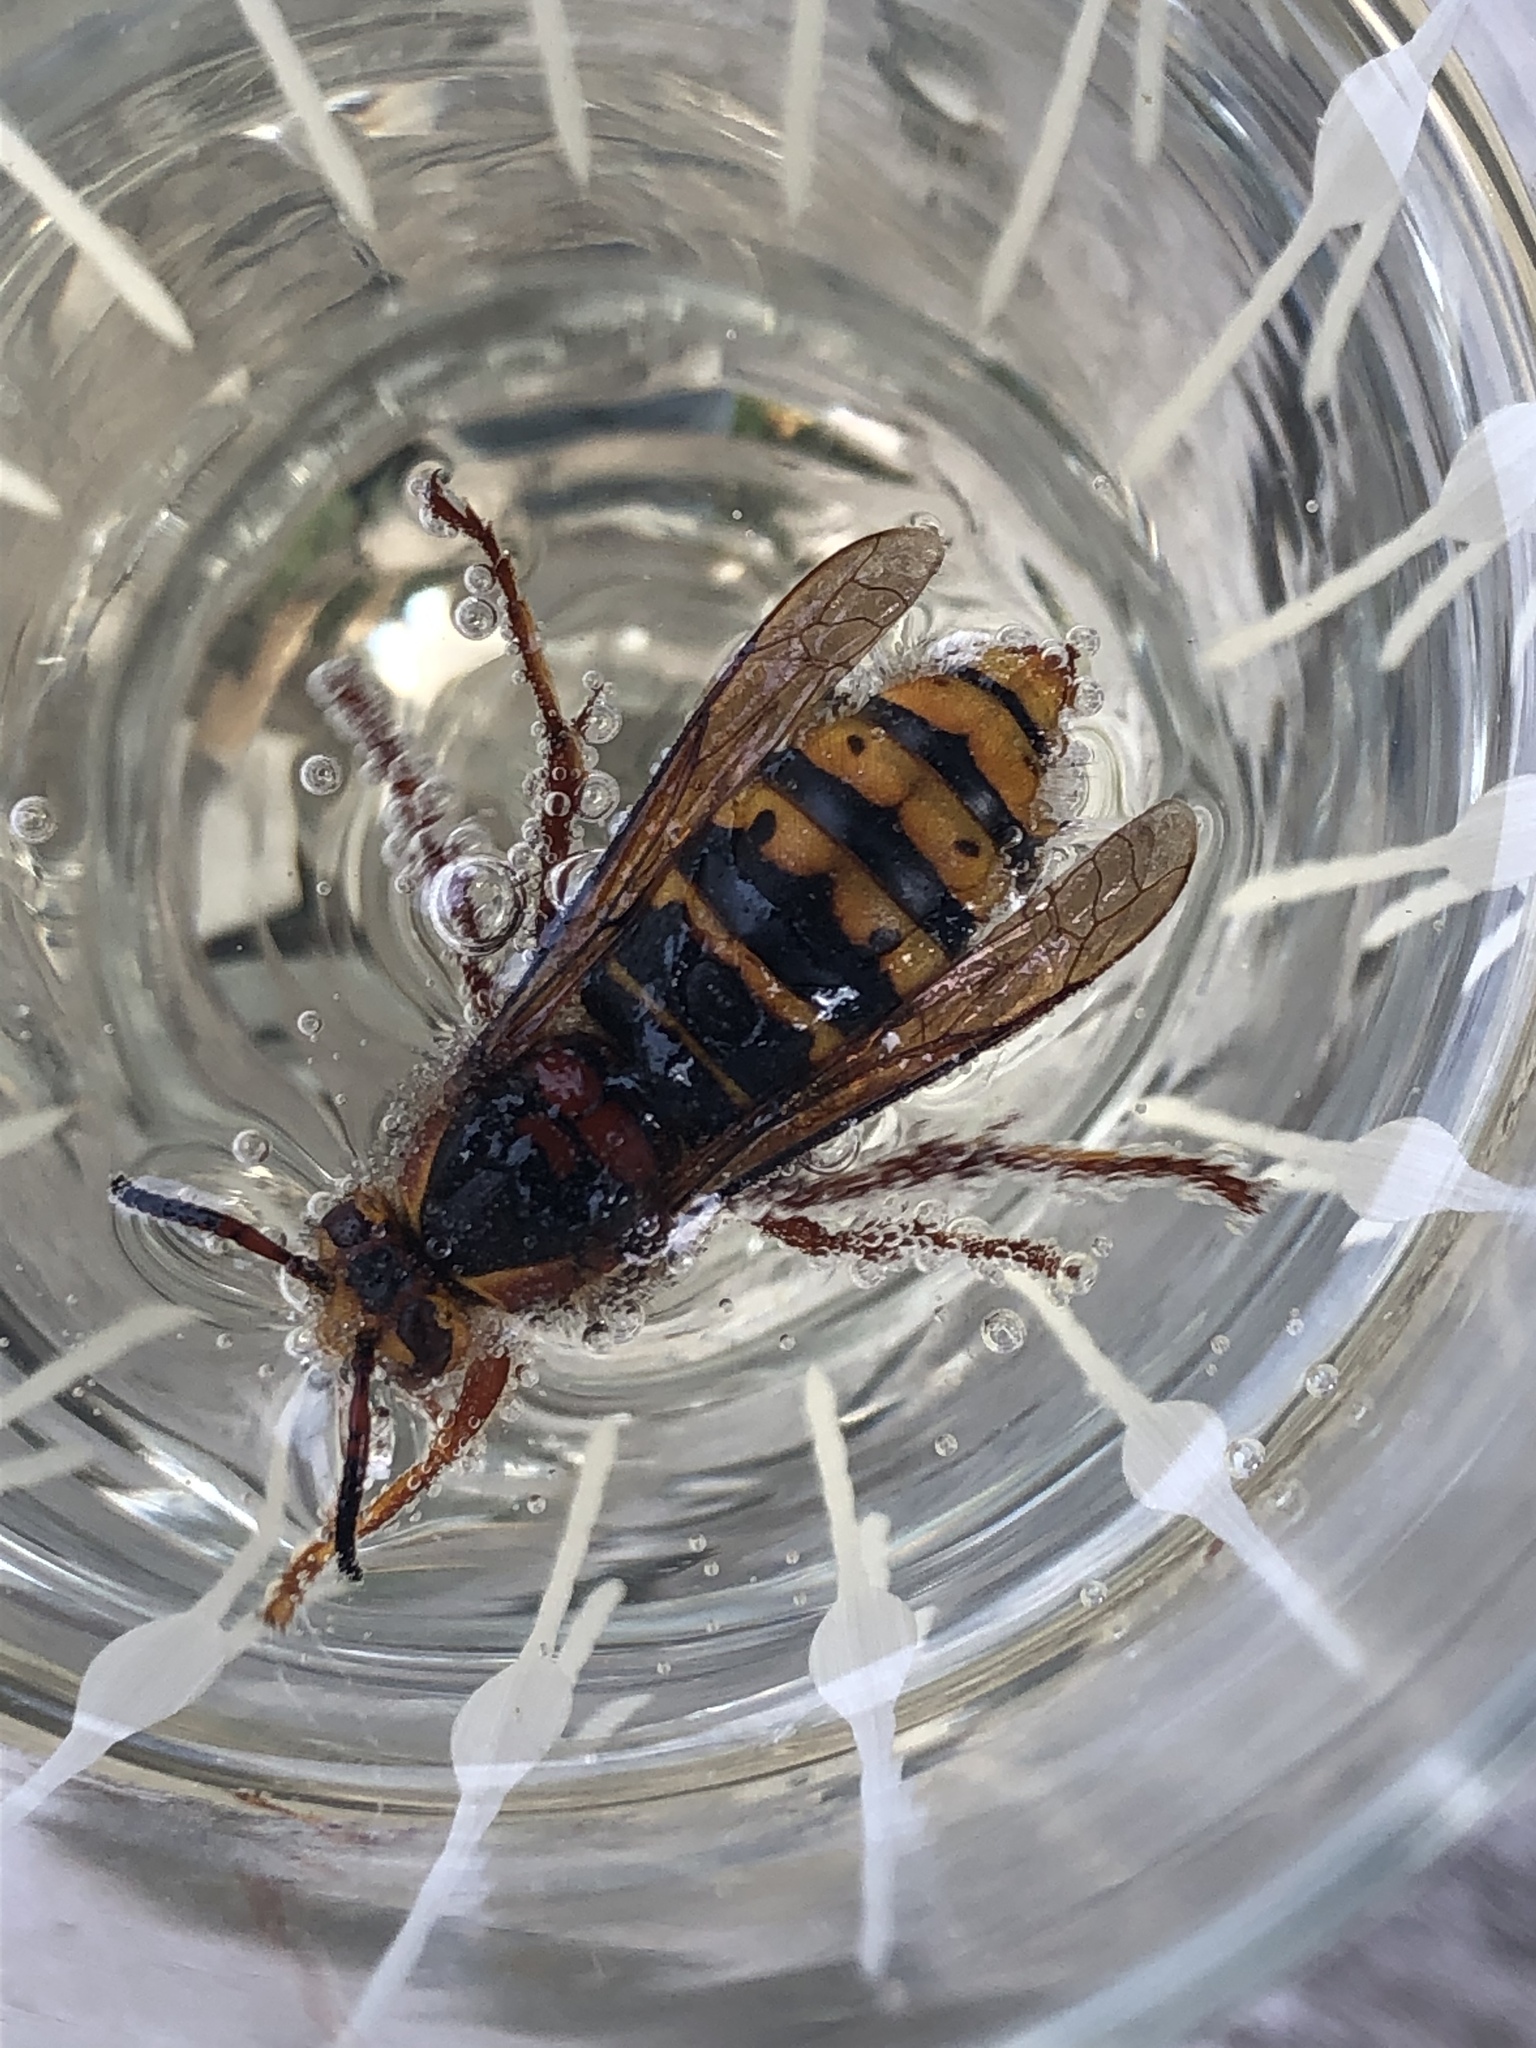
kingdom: Animalia
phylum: Arthropoda
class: Insecta
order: Hymenoptera
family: Vespidae
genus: Dolichovespula
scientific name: Dolichovespula media
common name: Median wasp
